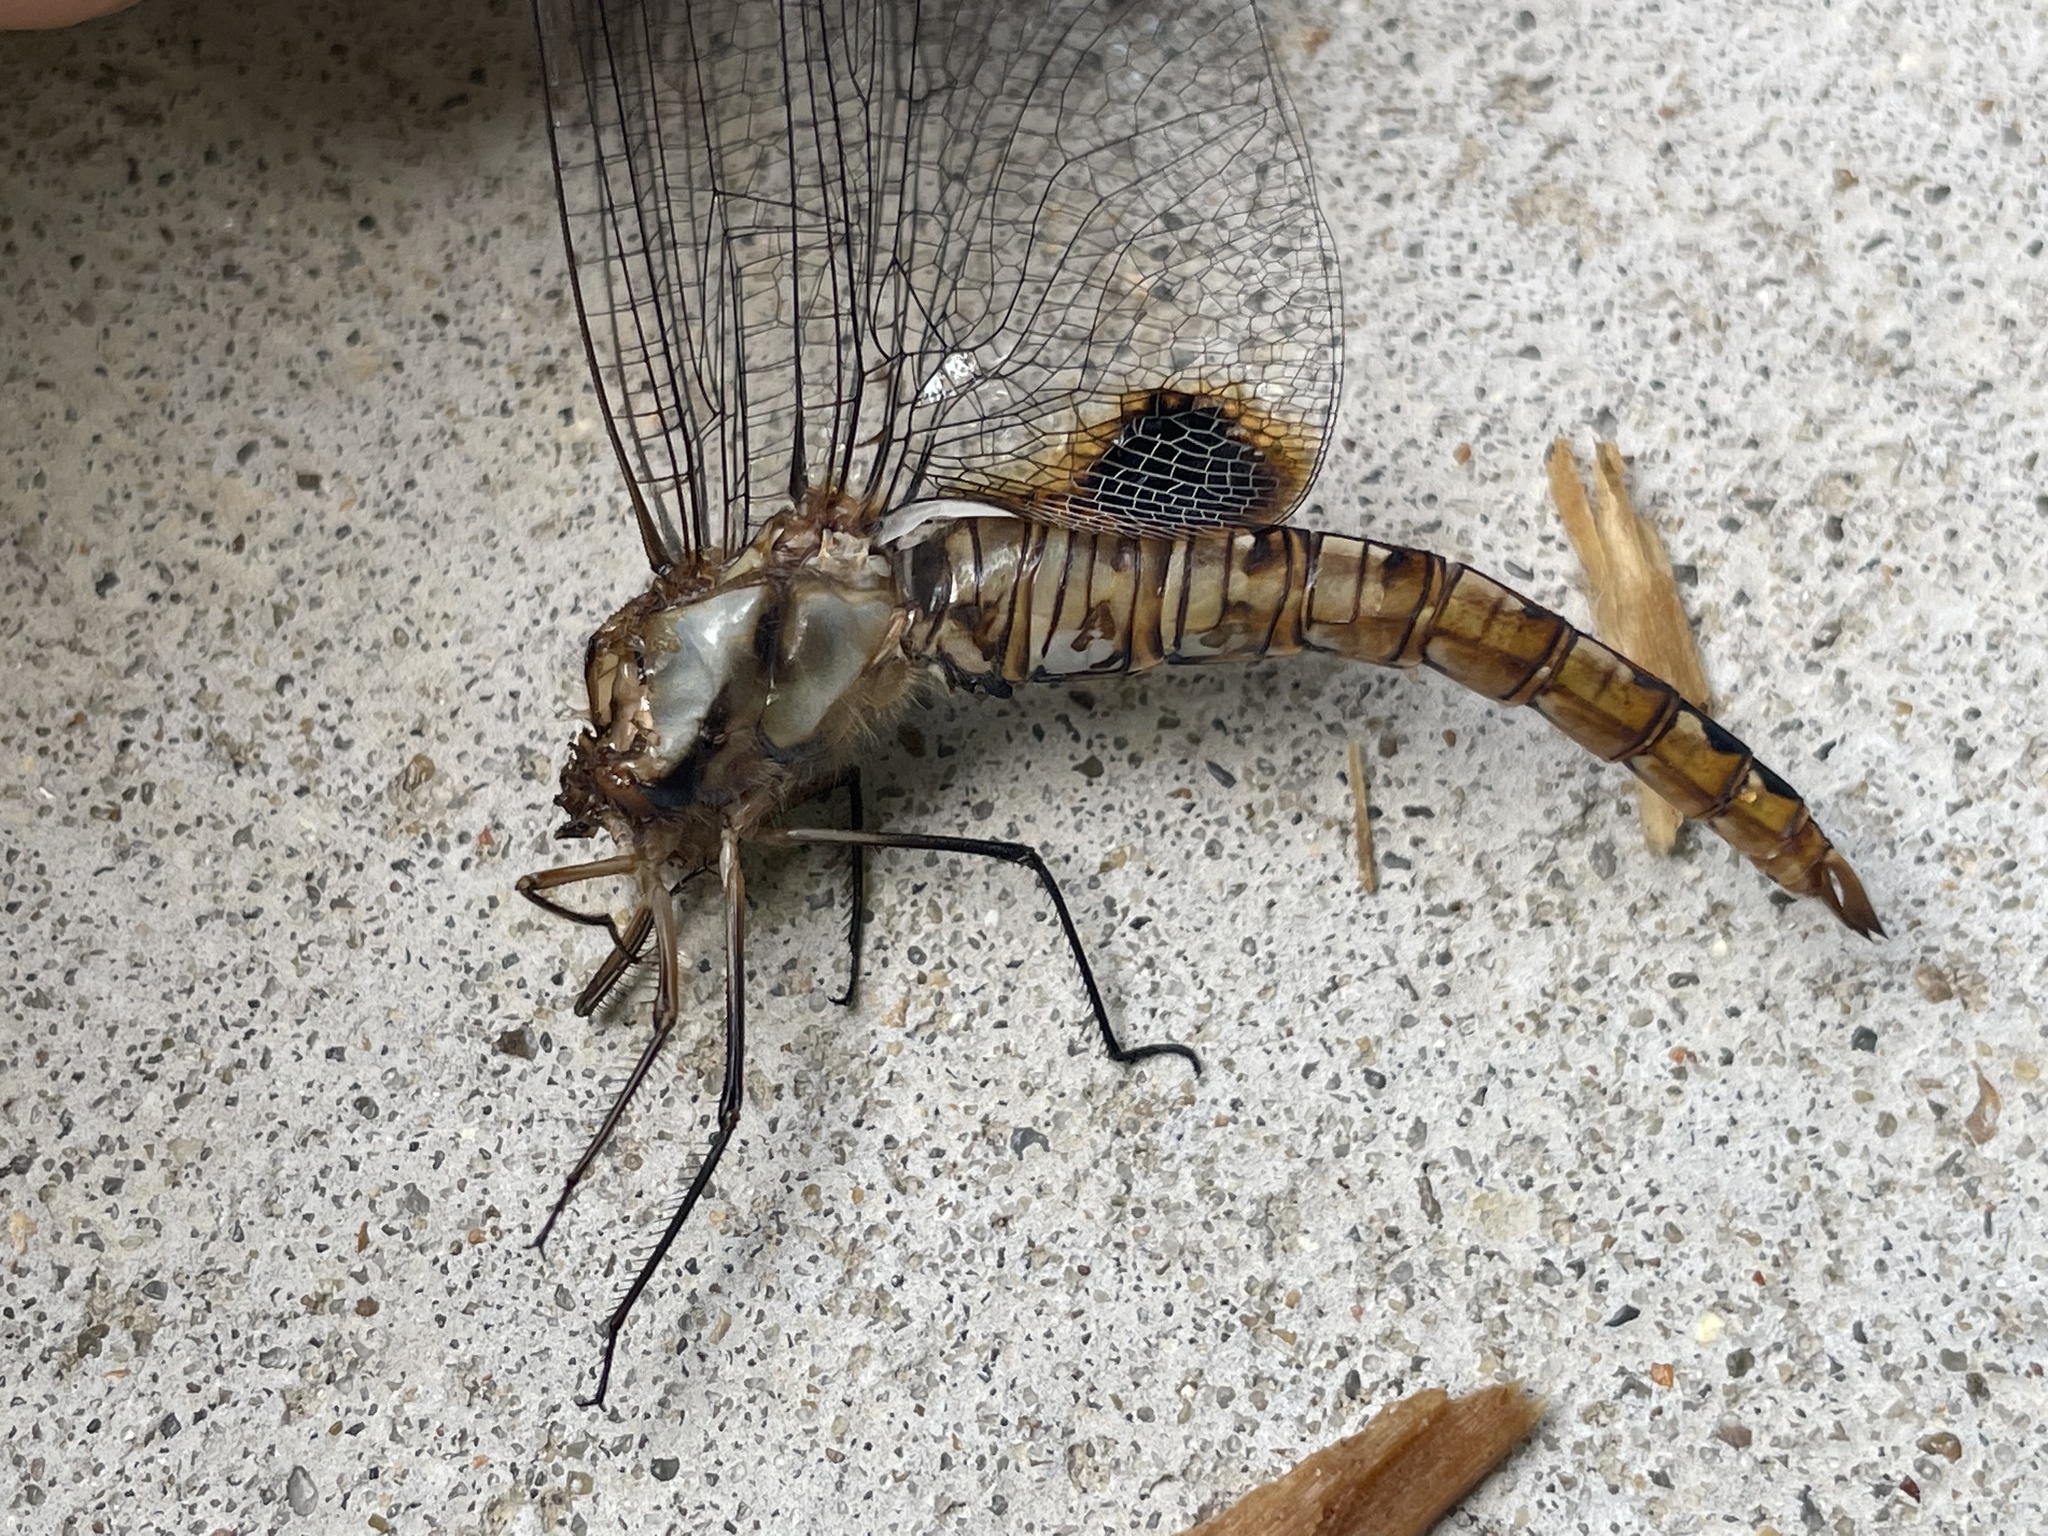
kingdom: Animalia
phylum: Arthropoda
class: Insecta
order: Odonata
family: Libellulidae
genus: Pantala
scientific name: Pantala hymenaea
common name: Spot-winged glider
